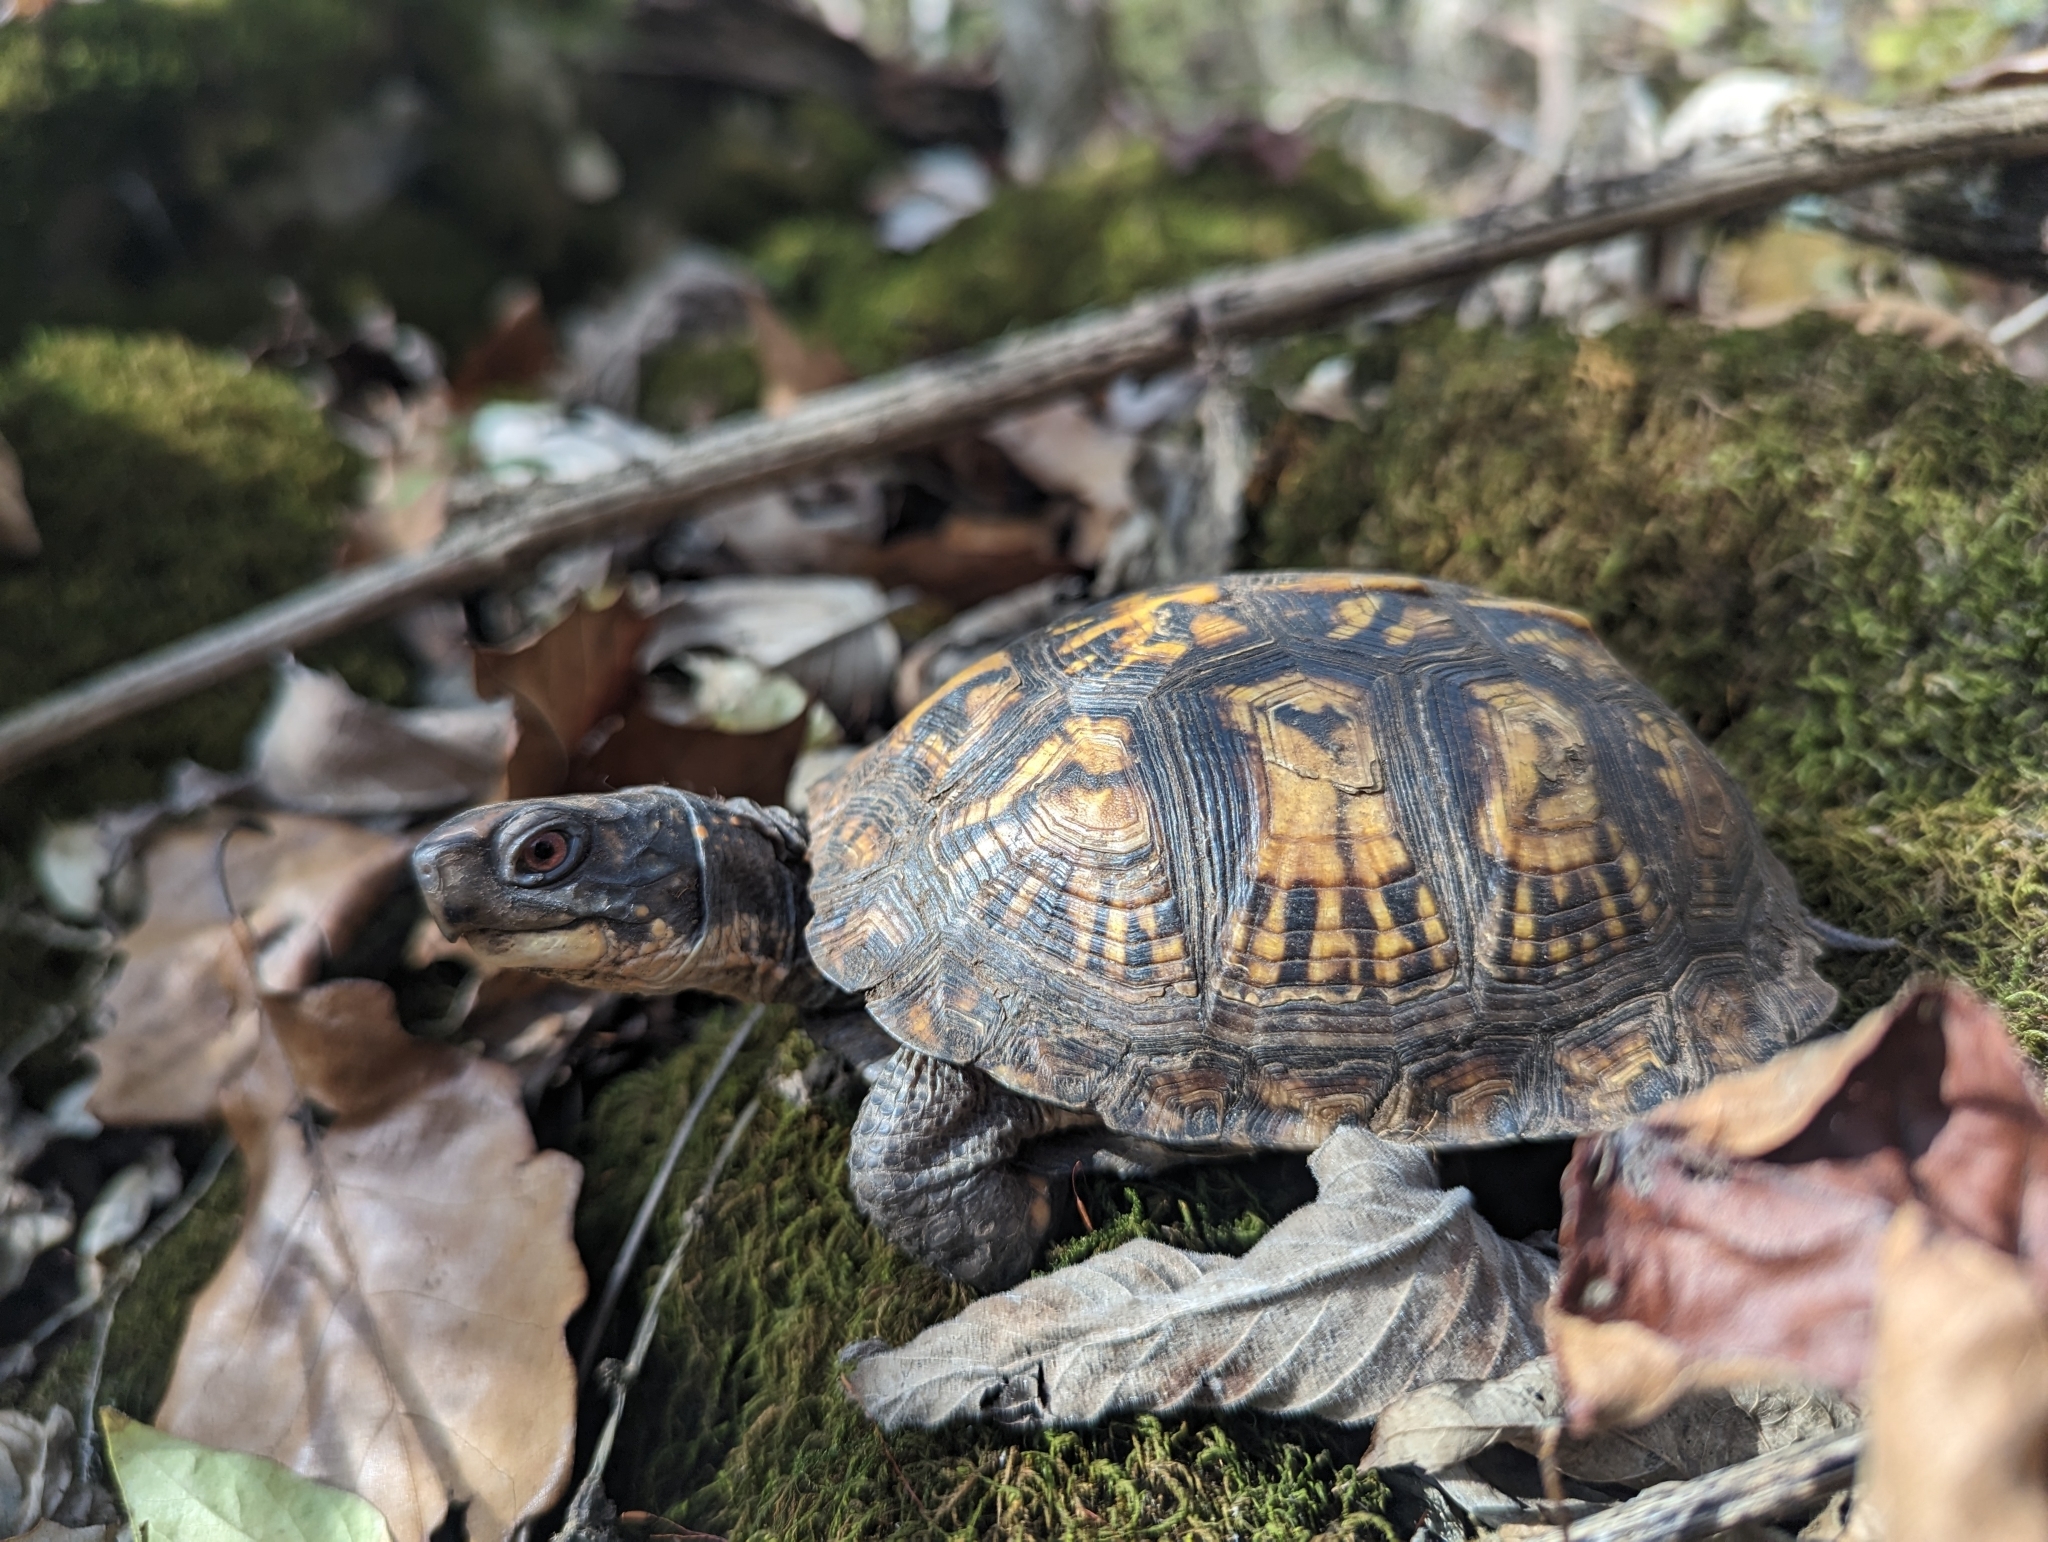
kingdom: Animalia
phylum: Chordata
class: Testudines
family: Emydidae
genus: Terrapene
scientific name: Terrapene carolina
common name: Common box turtle
